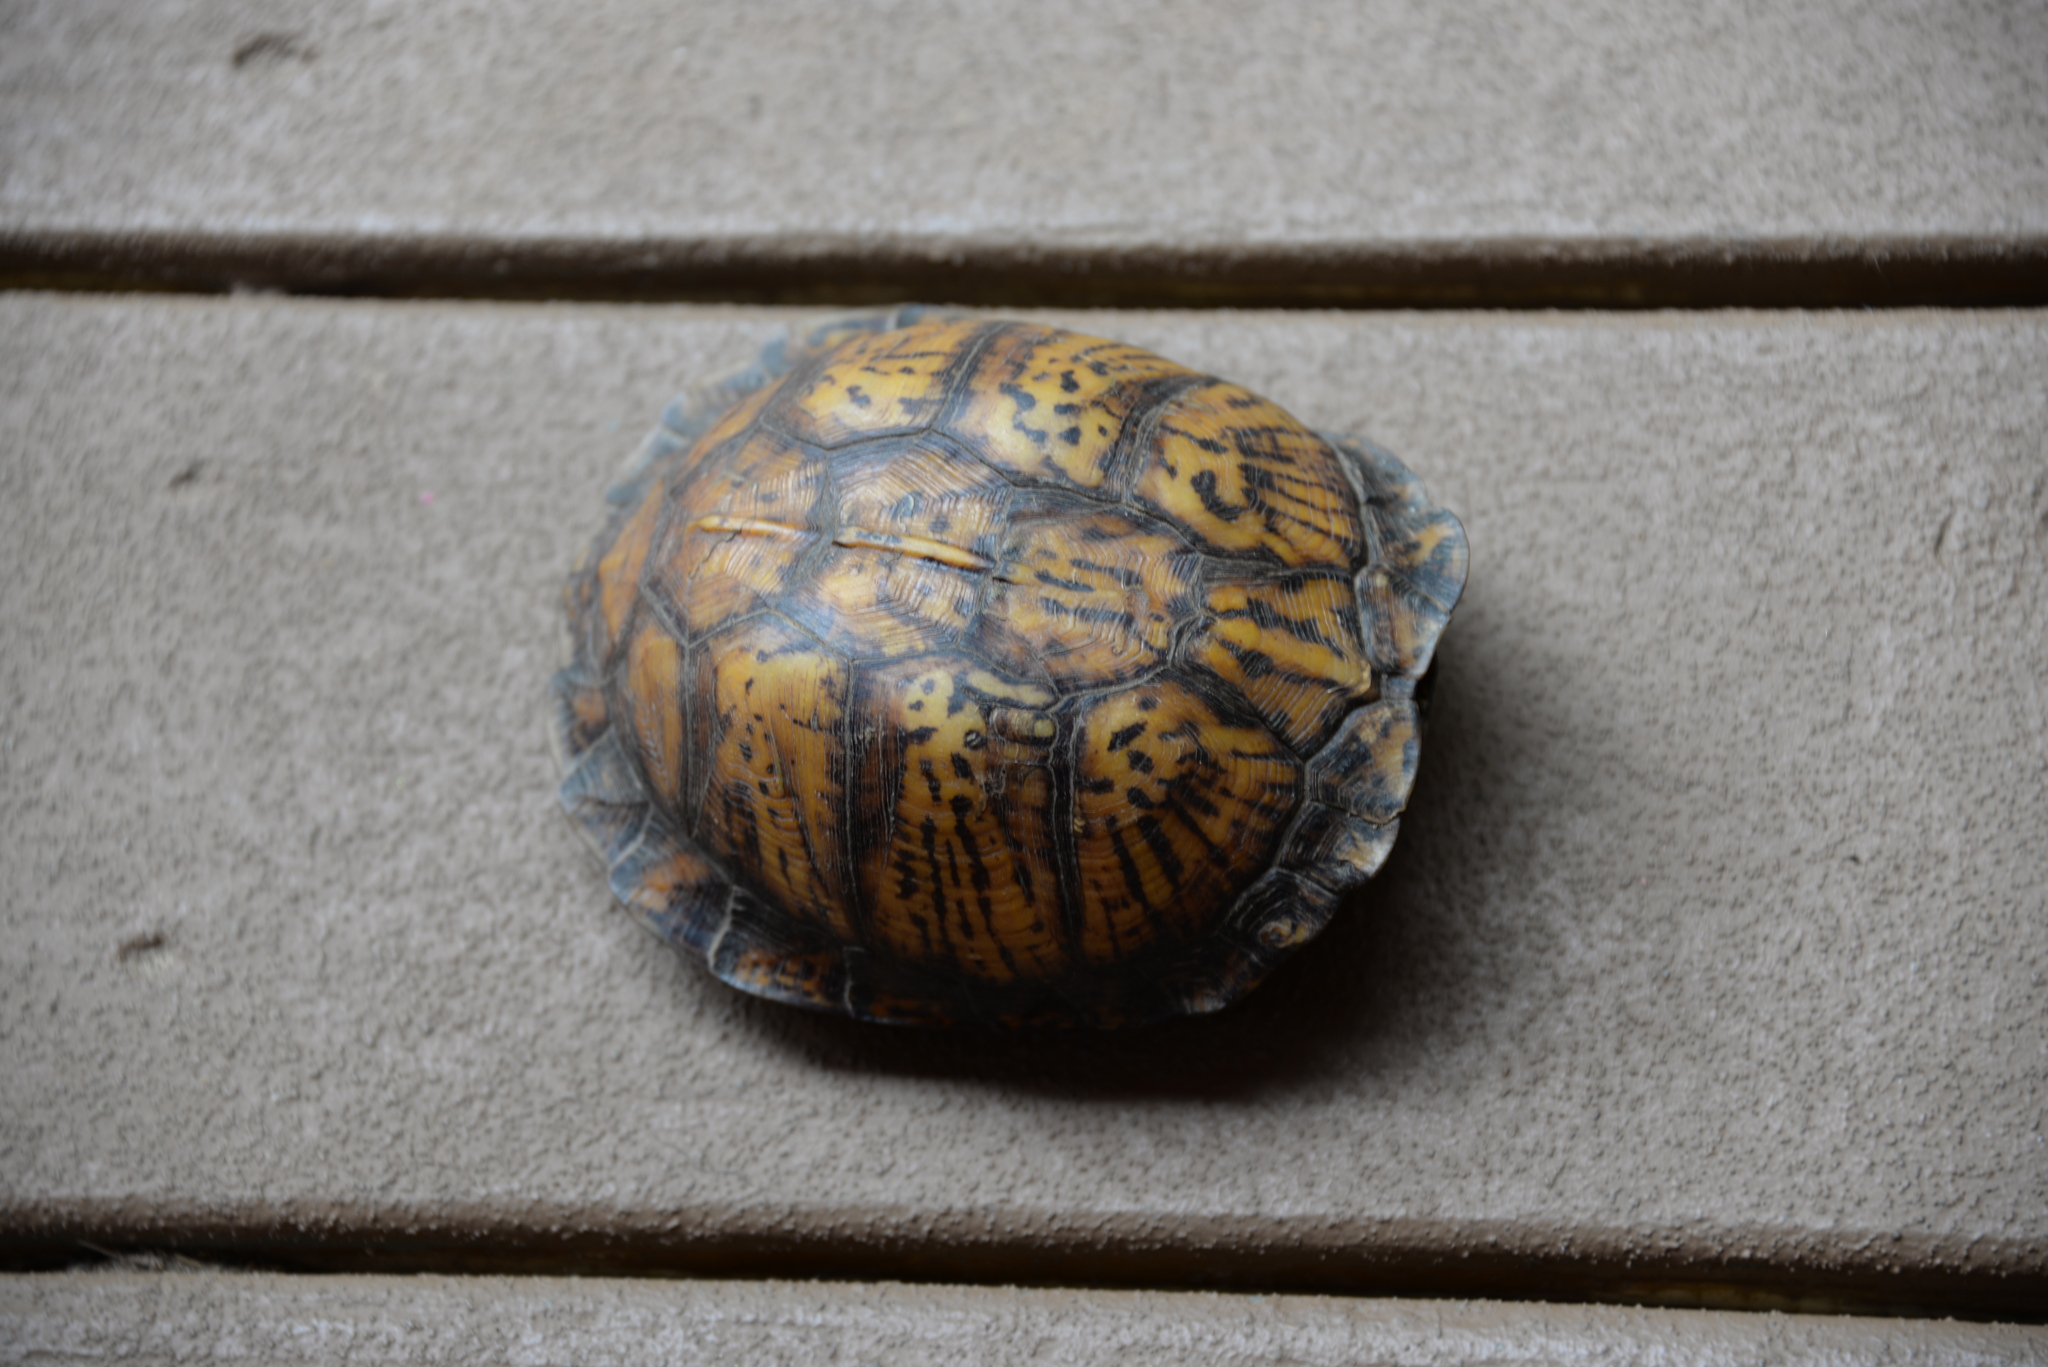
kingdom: Animalia
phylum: Chordata
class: Testudines
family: Emydidae
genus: Terrapene
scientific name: Terrapene carolina
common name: Common box turtle
